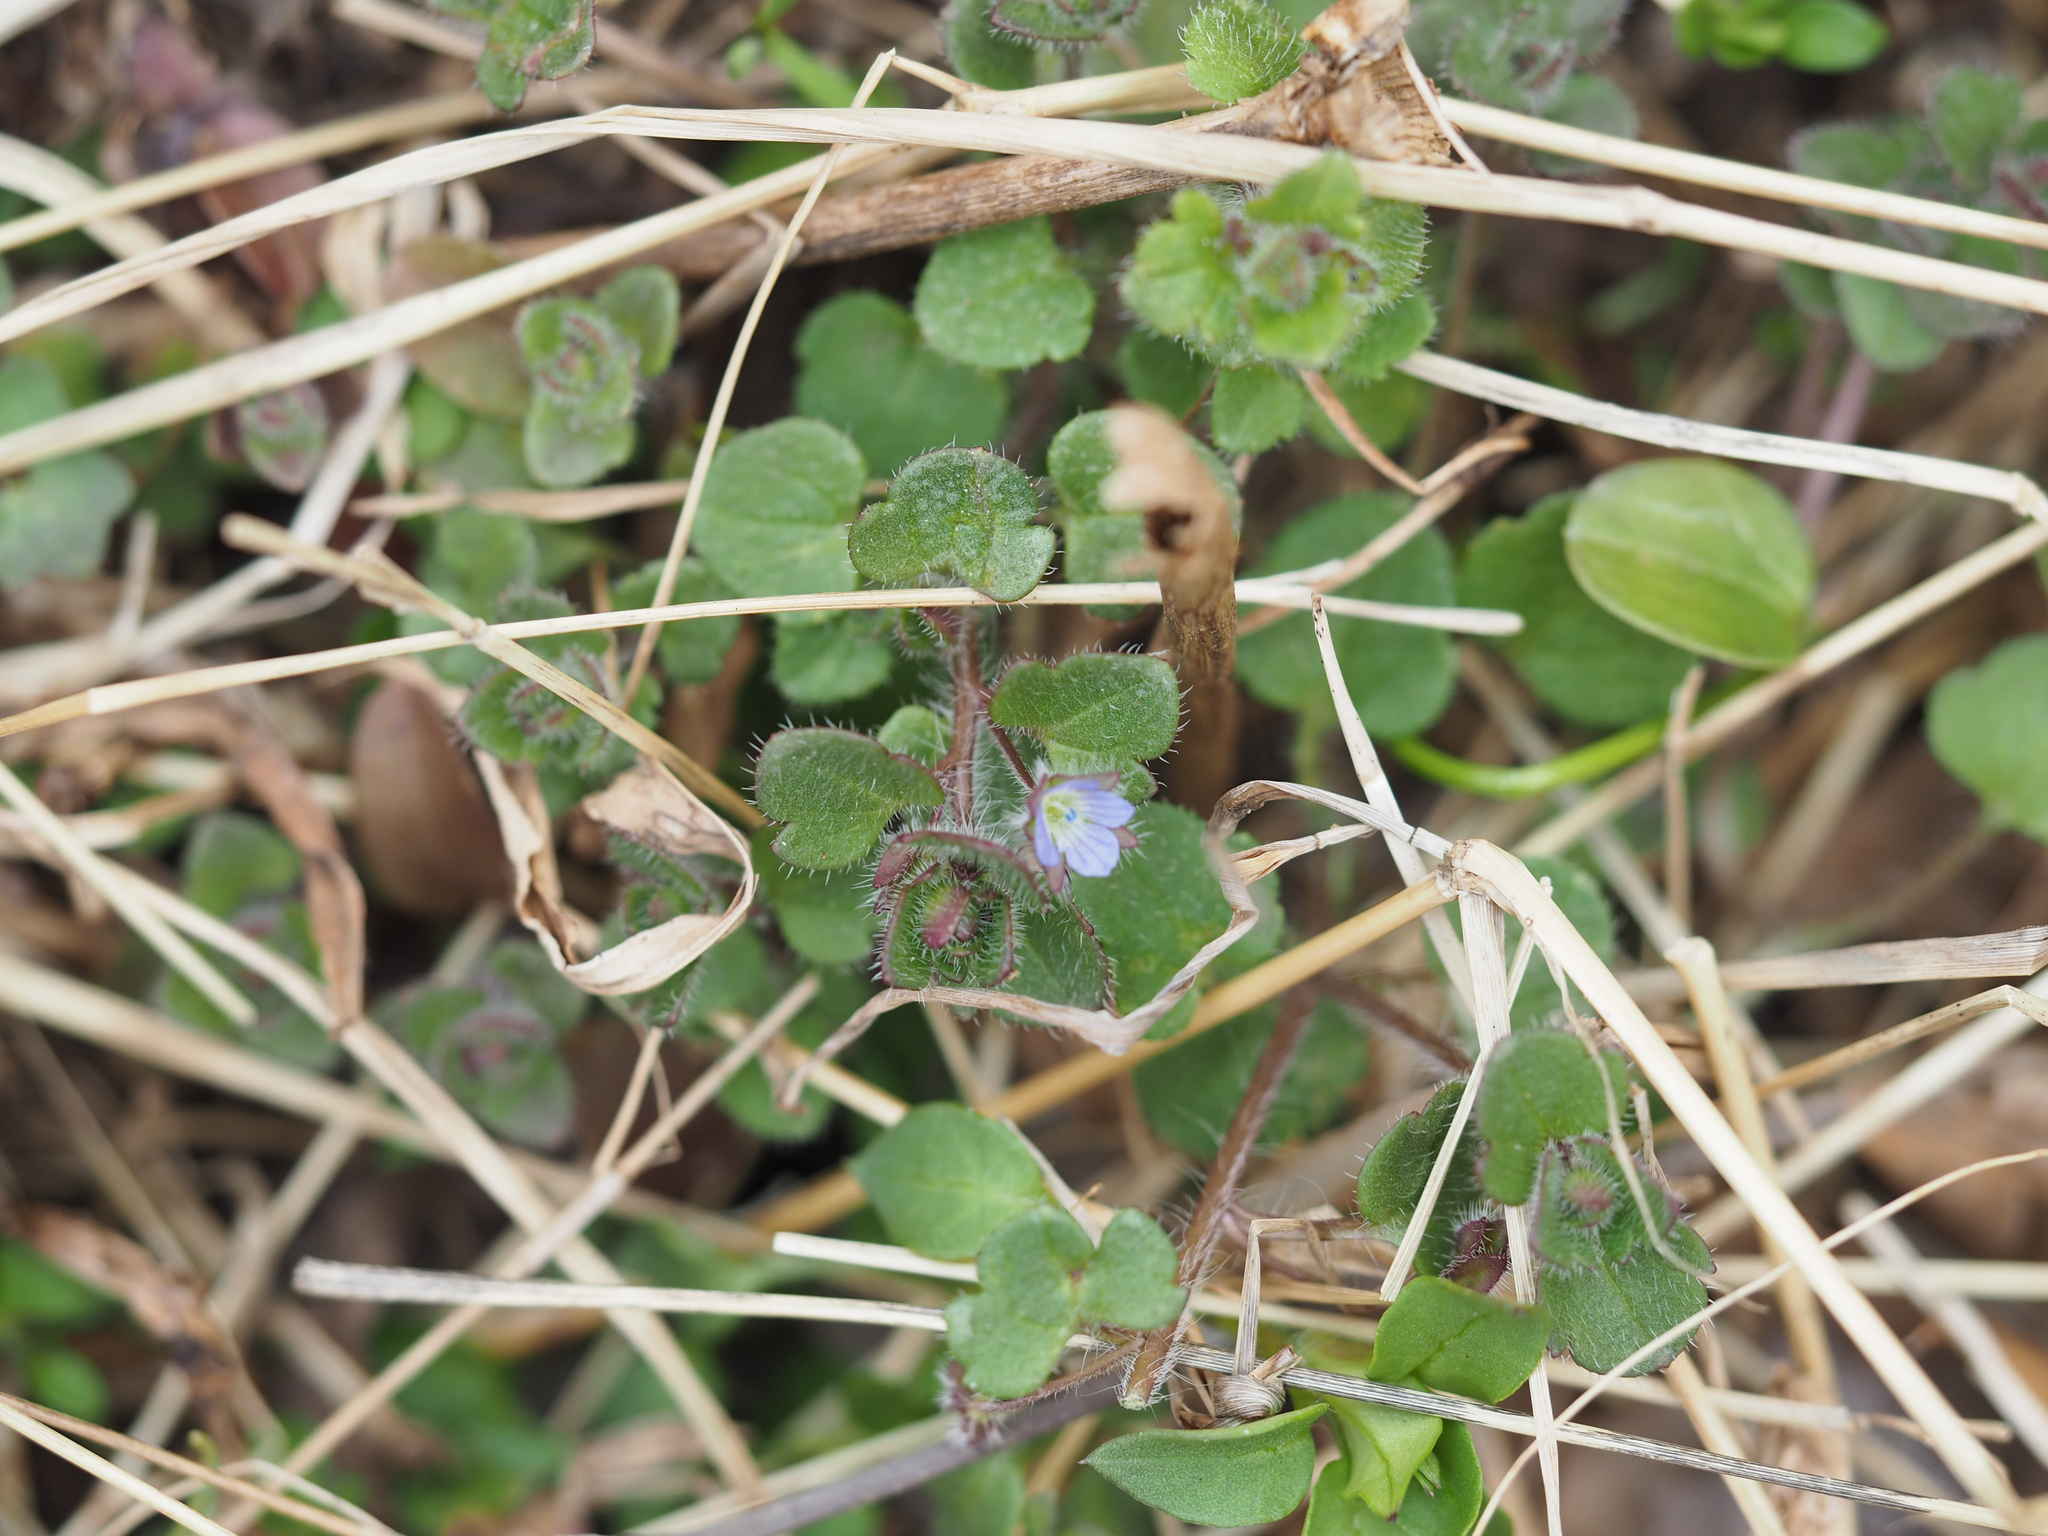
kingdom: Plantae
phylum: Tracheophyta
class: Magnoliopsida
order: Lamiales
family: Plantaginaceae
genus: Veronica
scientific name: Veronica hederifolia
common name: Ivy-leaved speedwell
